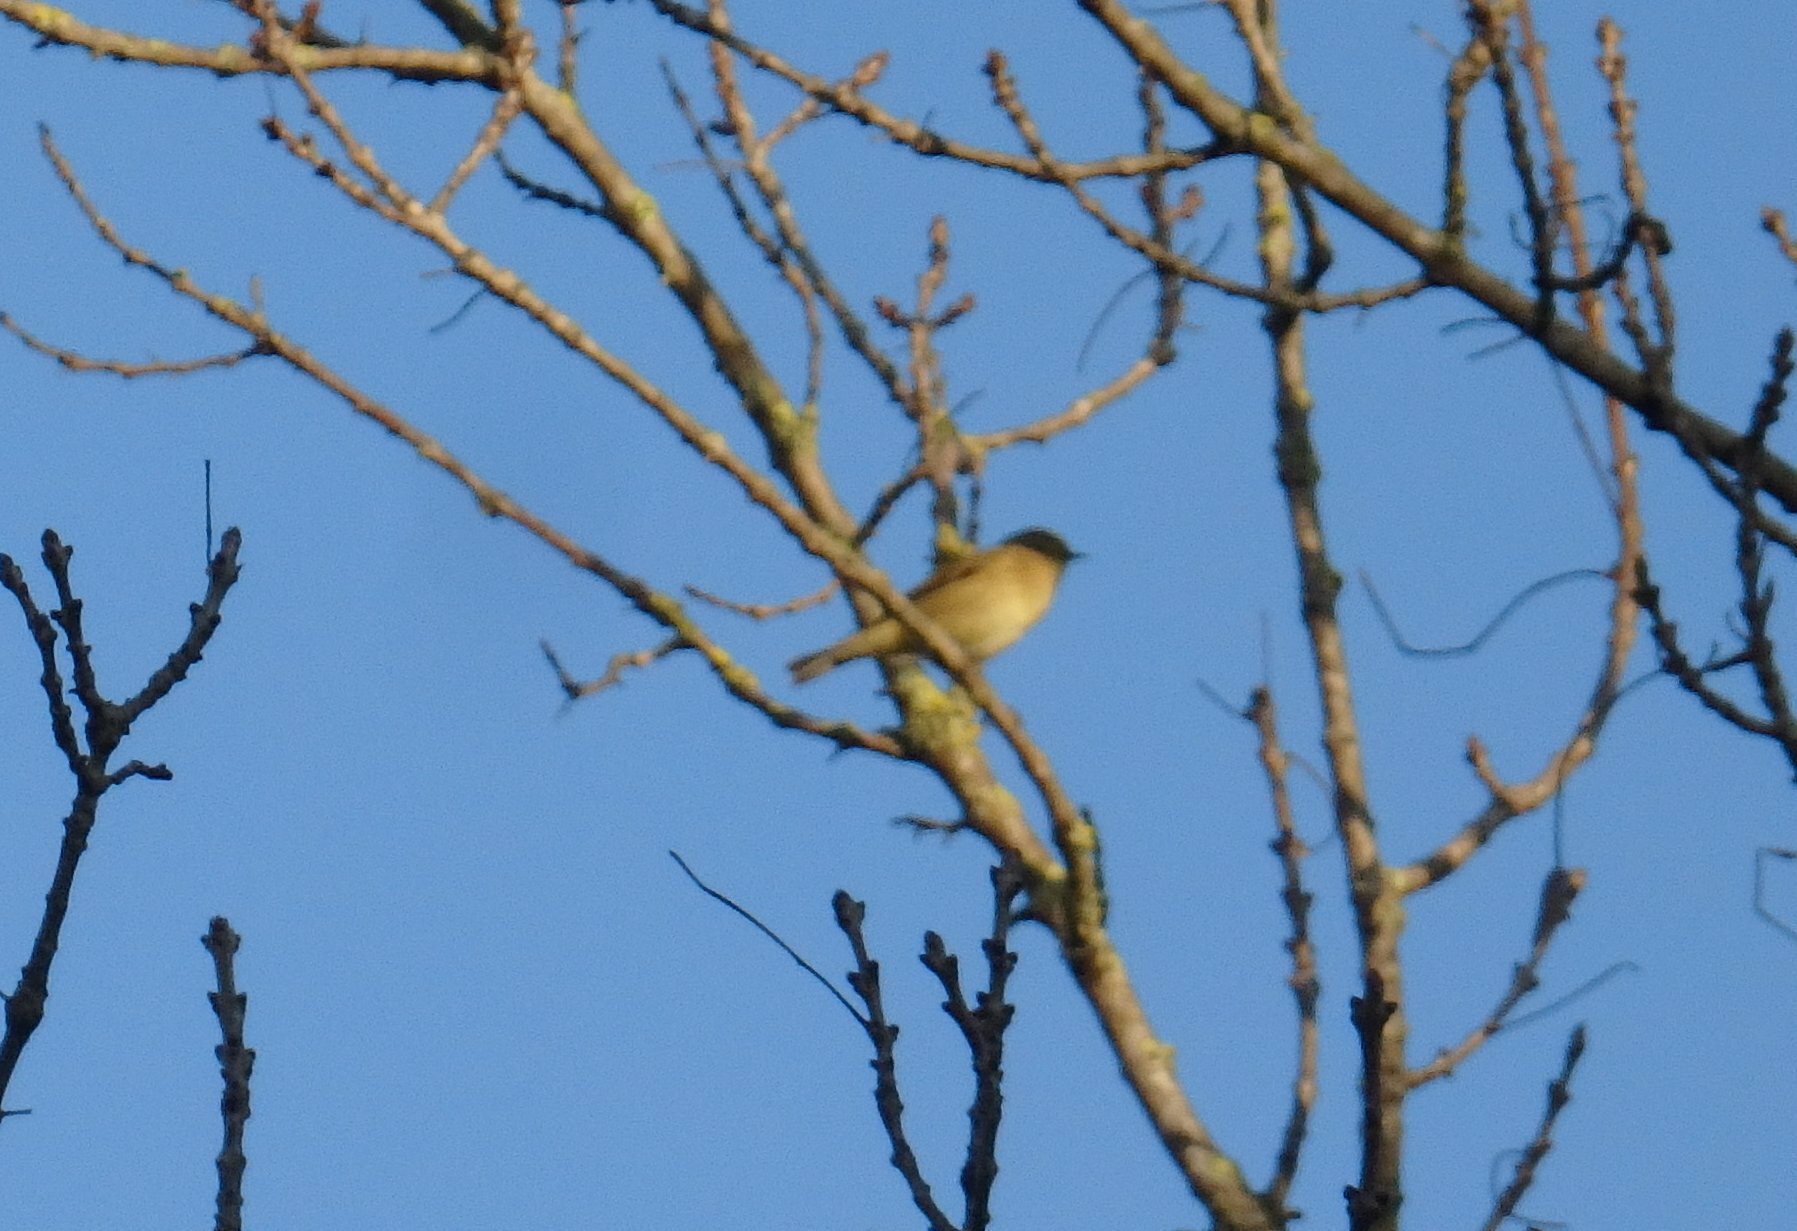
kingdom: Animalia
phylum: Chordata
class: Aves
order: Passeriformes
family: Sylviidae
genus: Sylvia
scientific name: Sylvia atricapilla
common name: Eurasian blackcap
